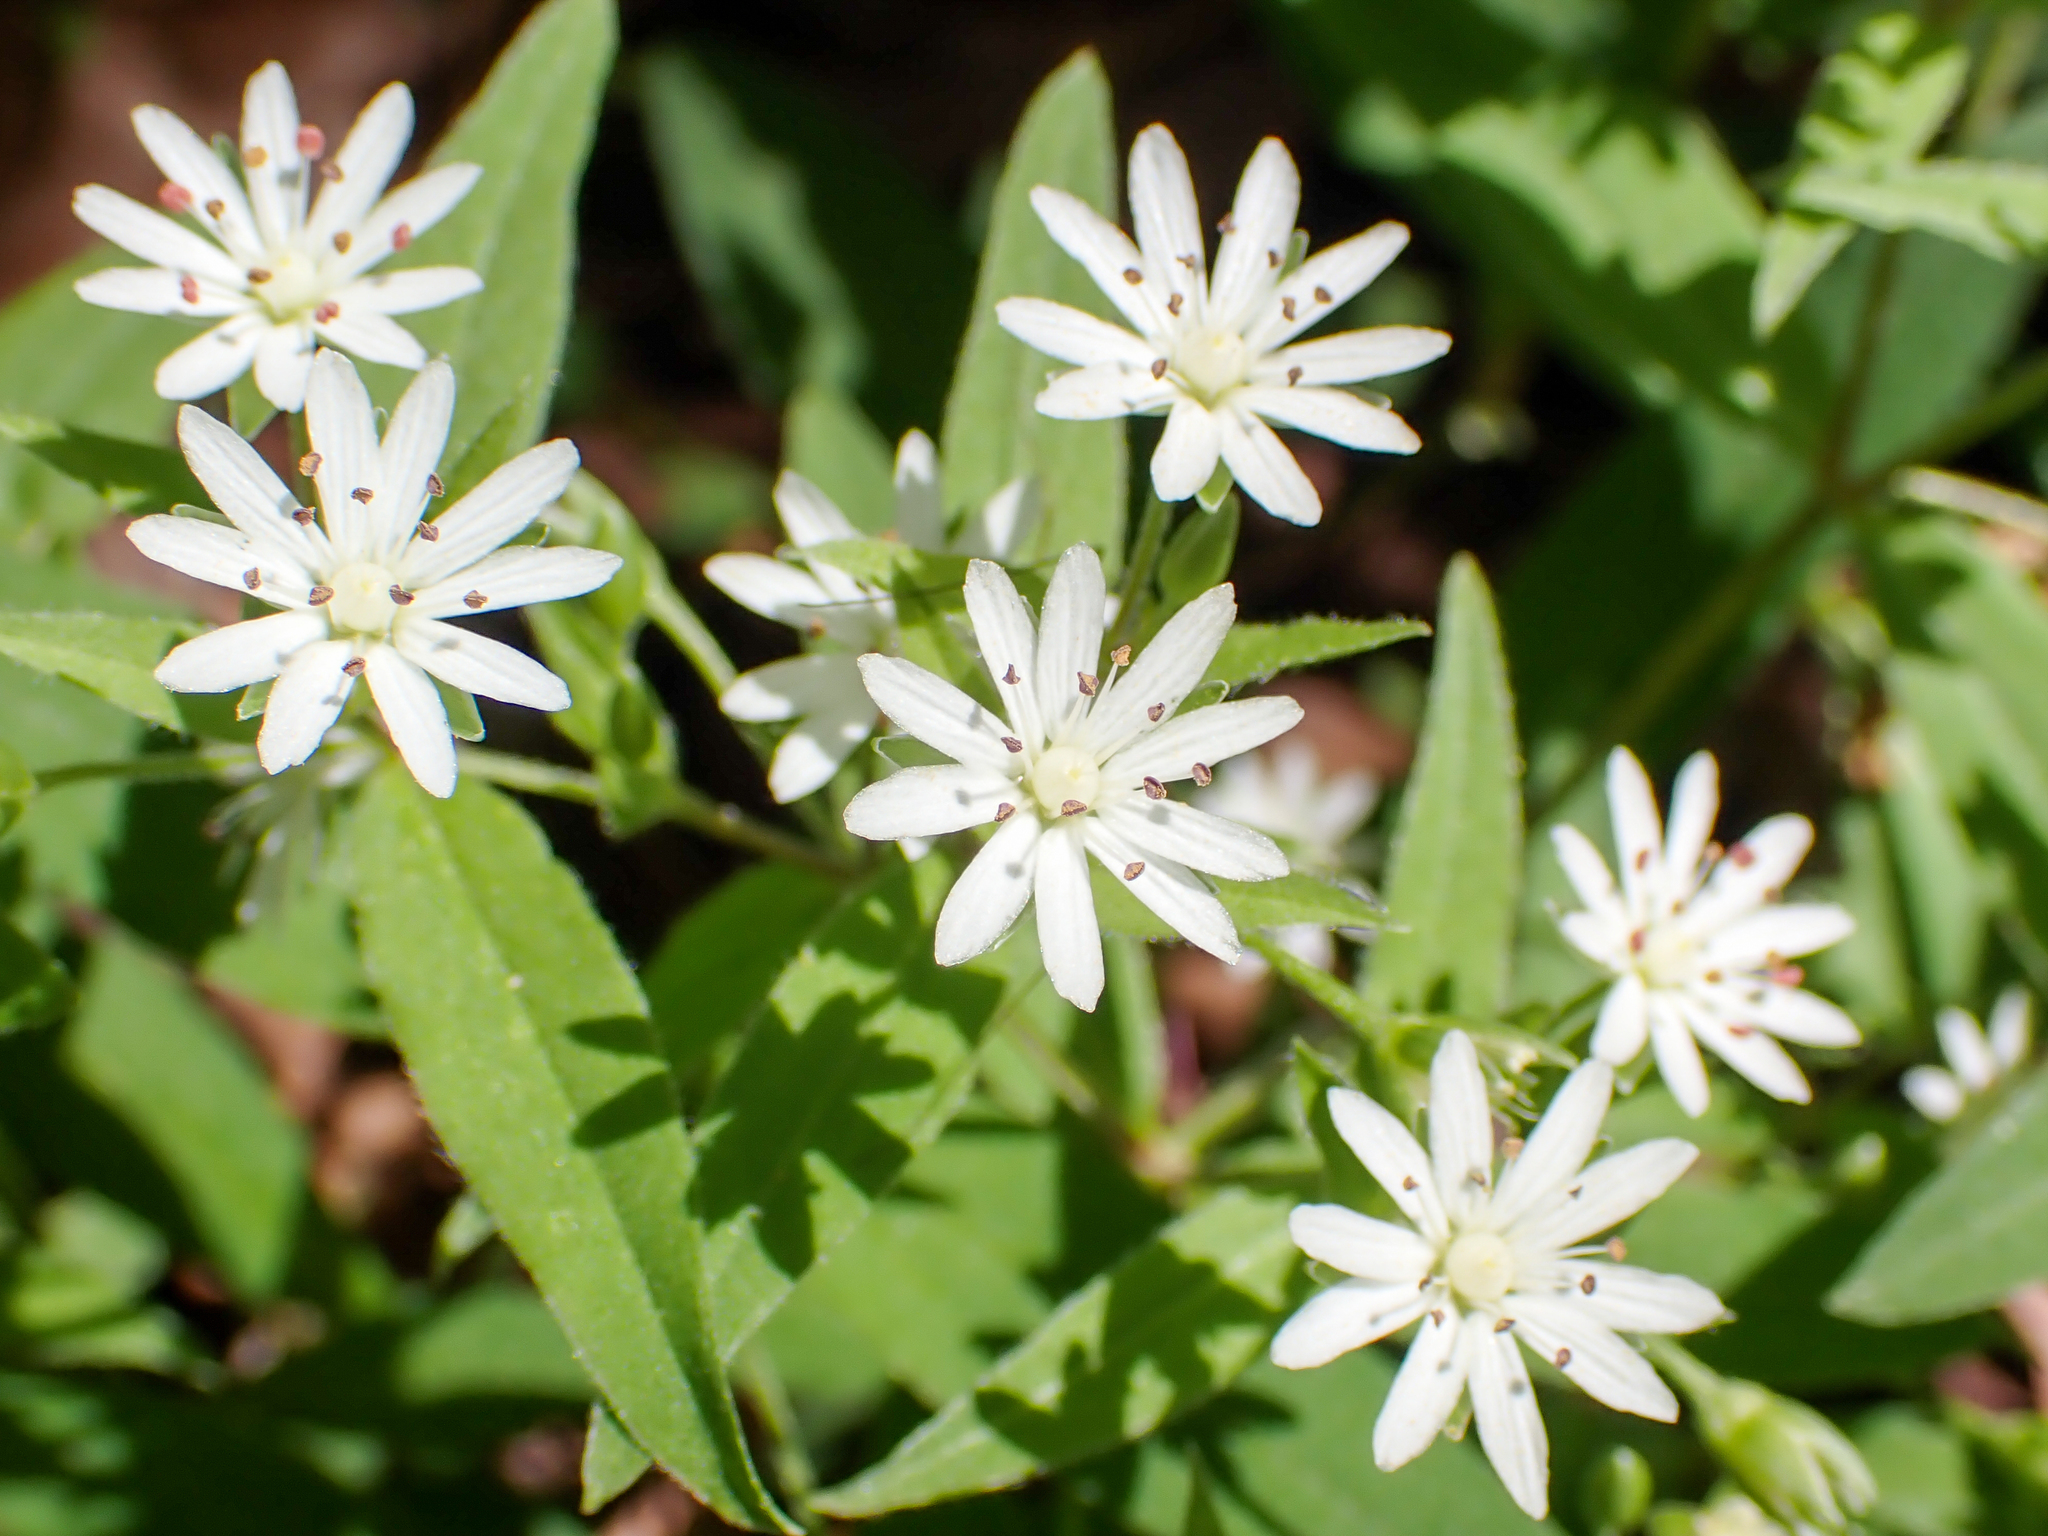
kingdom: Plantae
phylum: Tracheophyta
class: Magnoliopsida
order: Caryophyllales
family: Caryophyllaceae
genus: Stellaria
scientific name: Stellaria pubera
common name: Star chickweed
